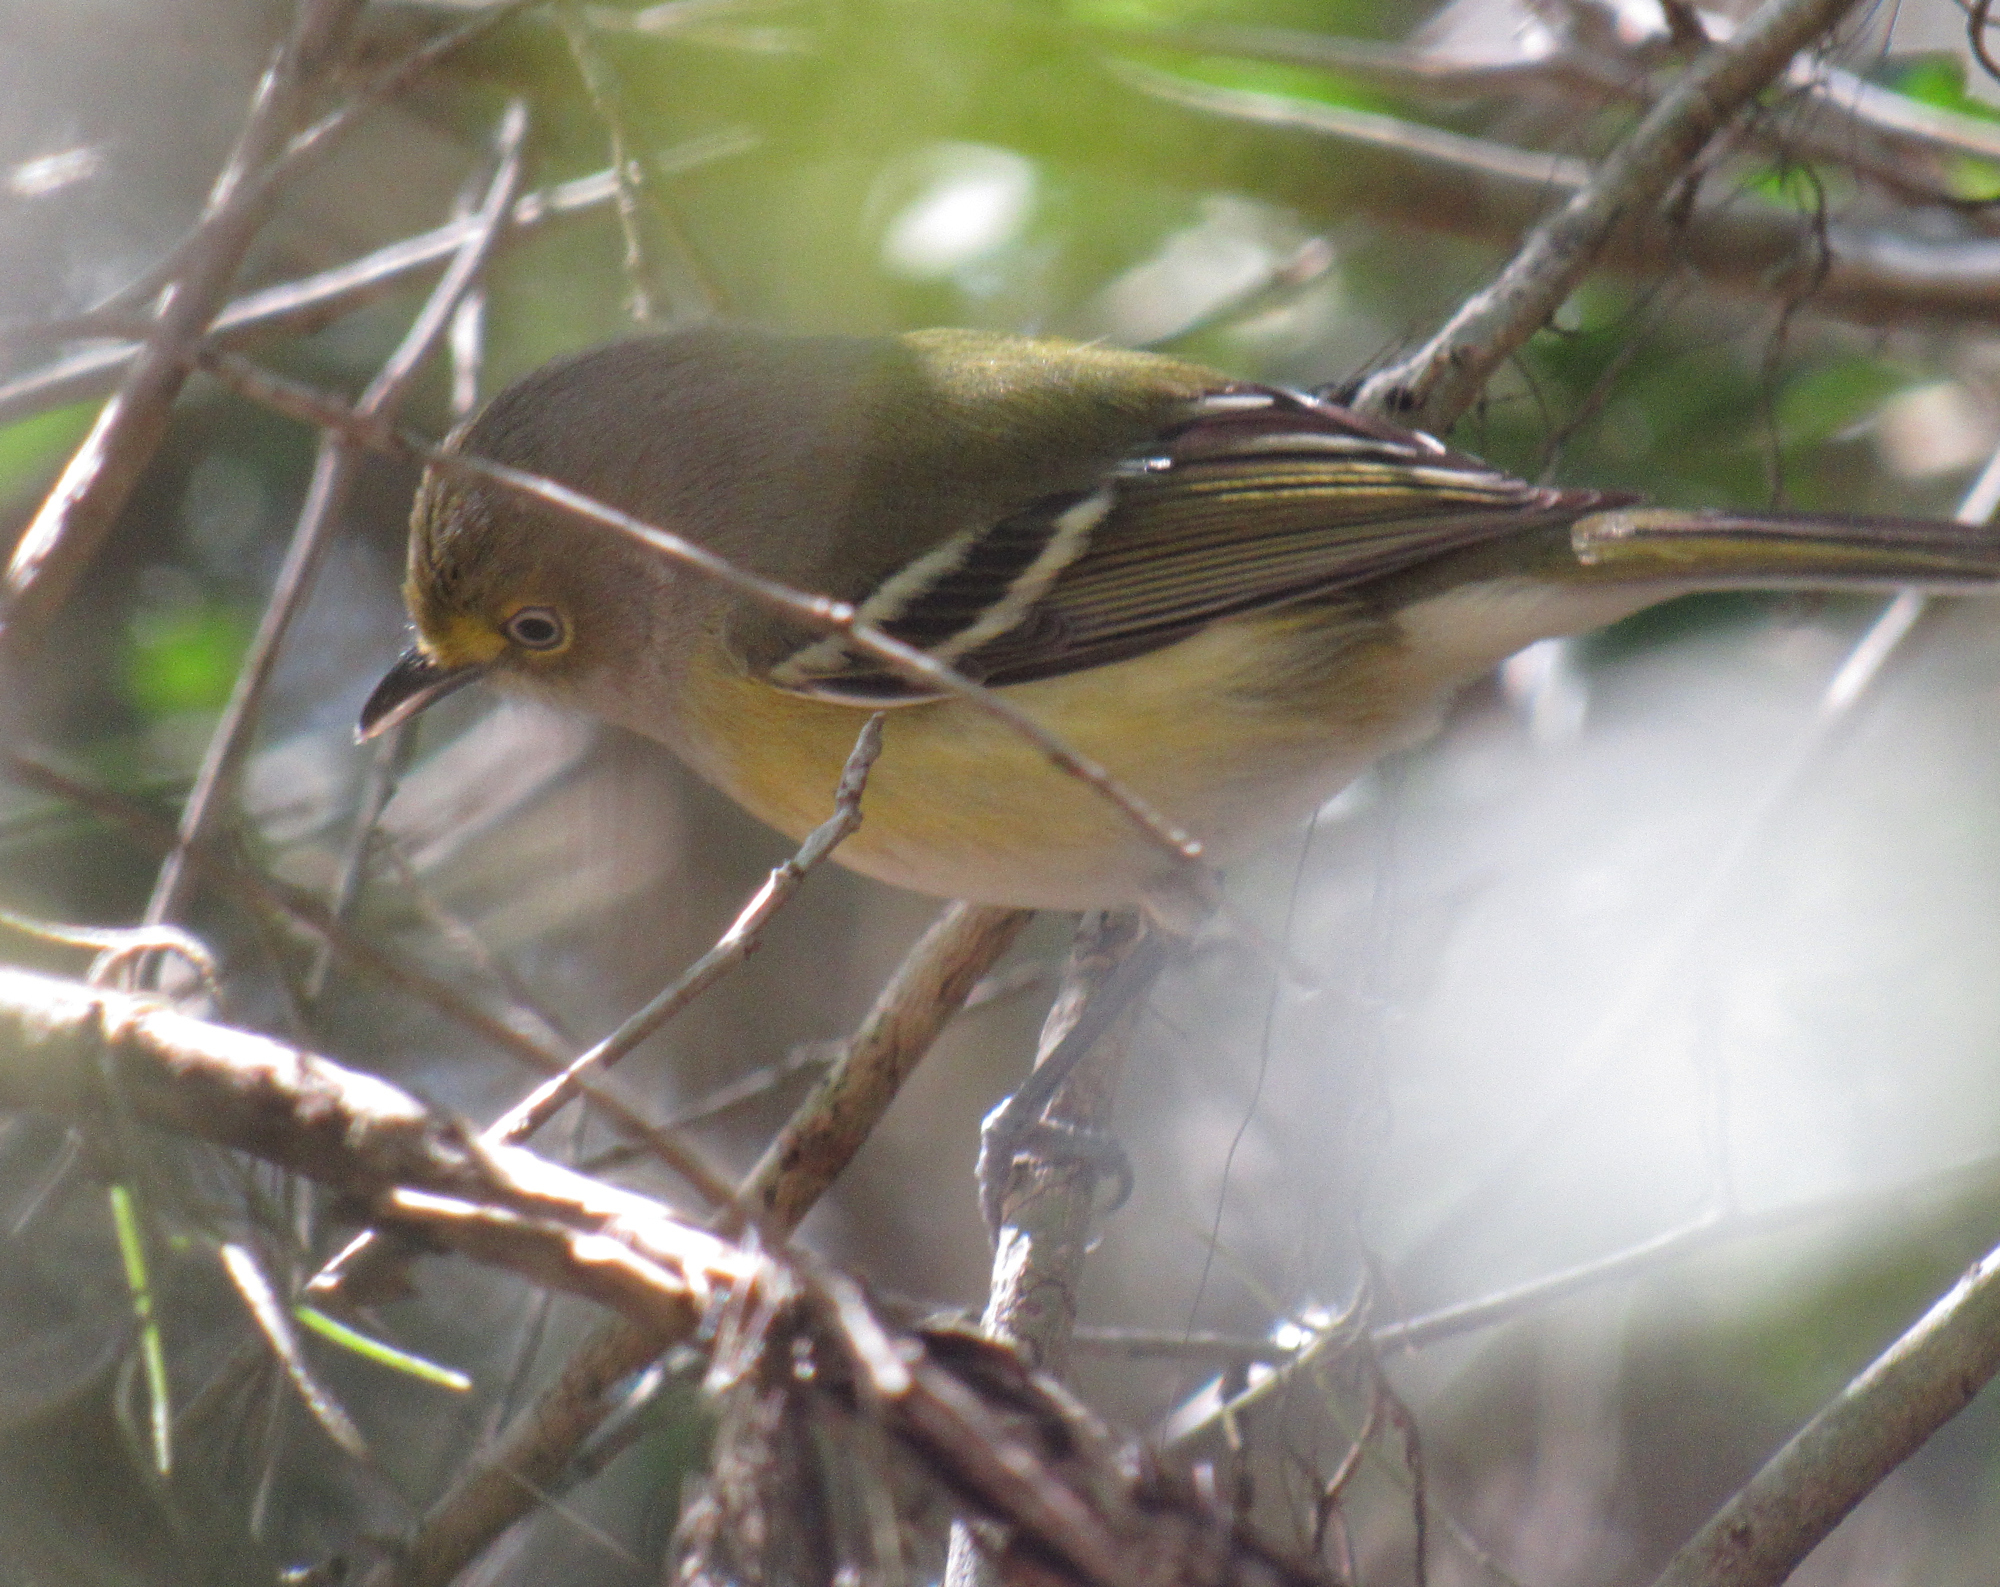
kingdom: Animalia
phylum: Chordata
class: Aves
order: Passeriformes
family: Vireonidae
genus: Vireo
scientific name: Vireo griseus
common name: White-eyed vireo
